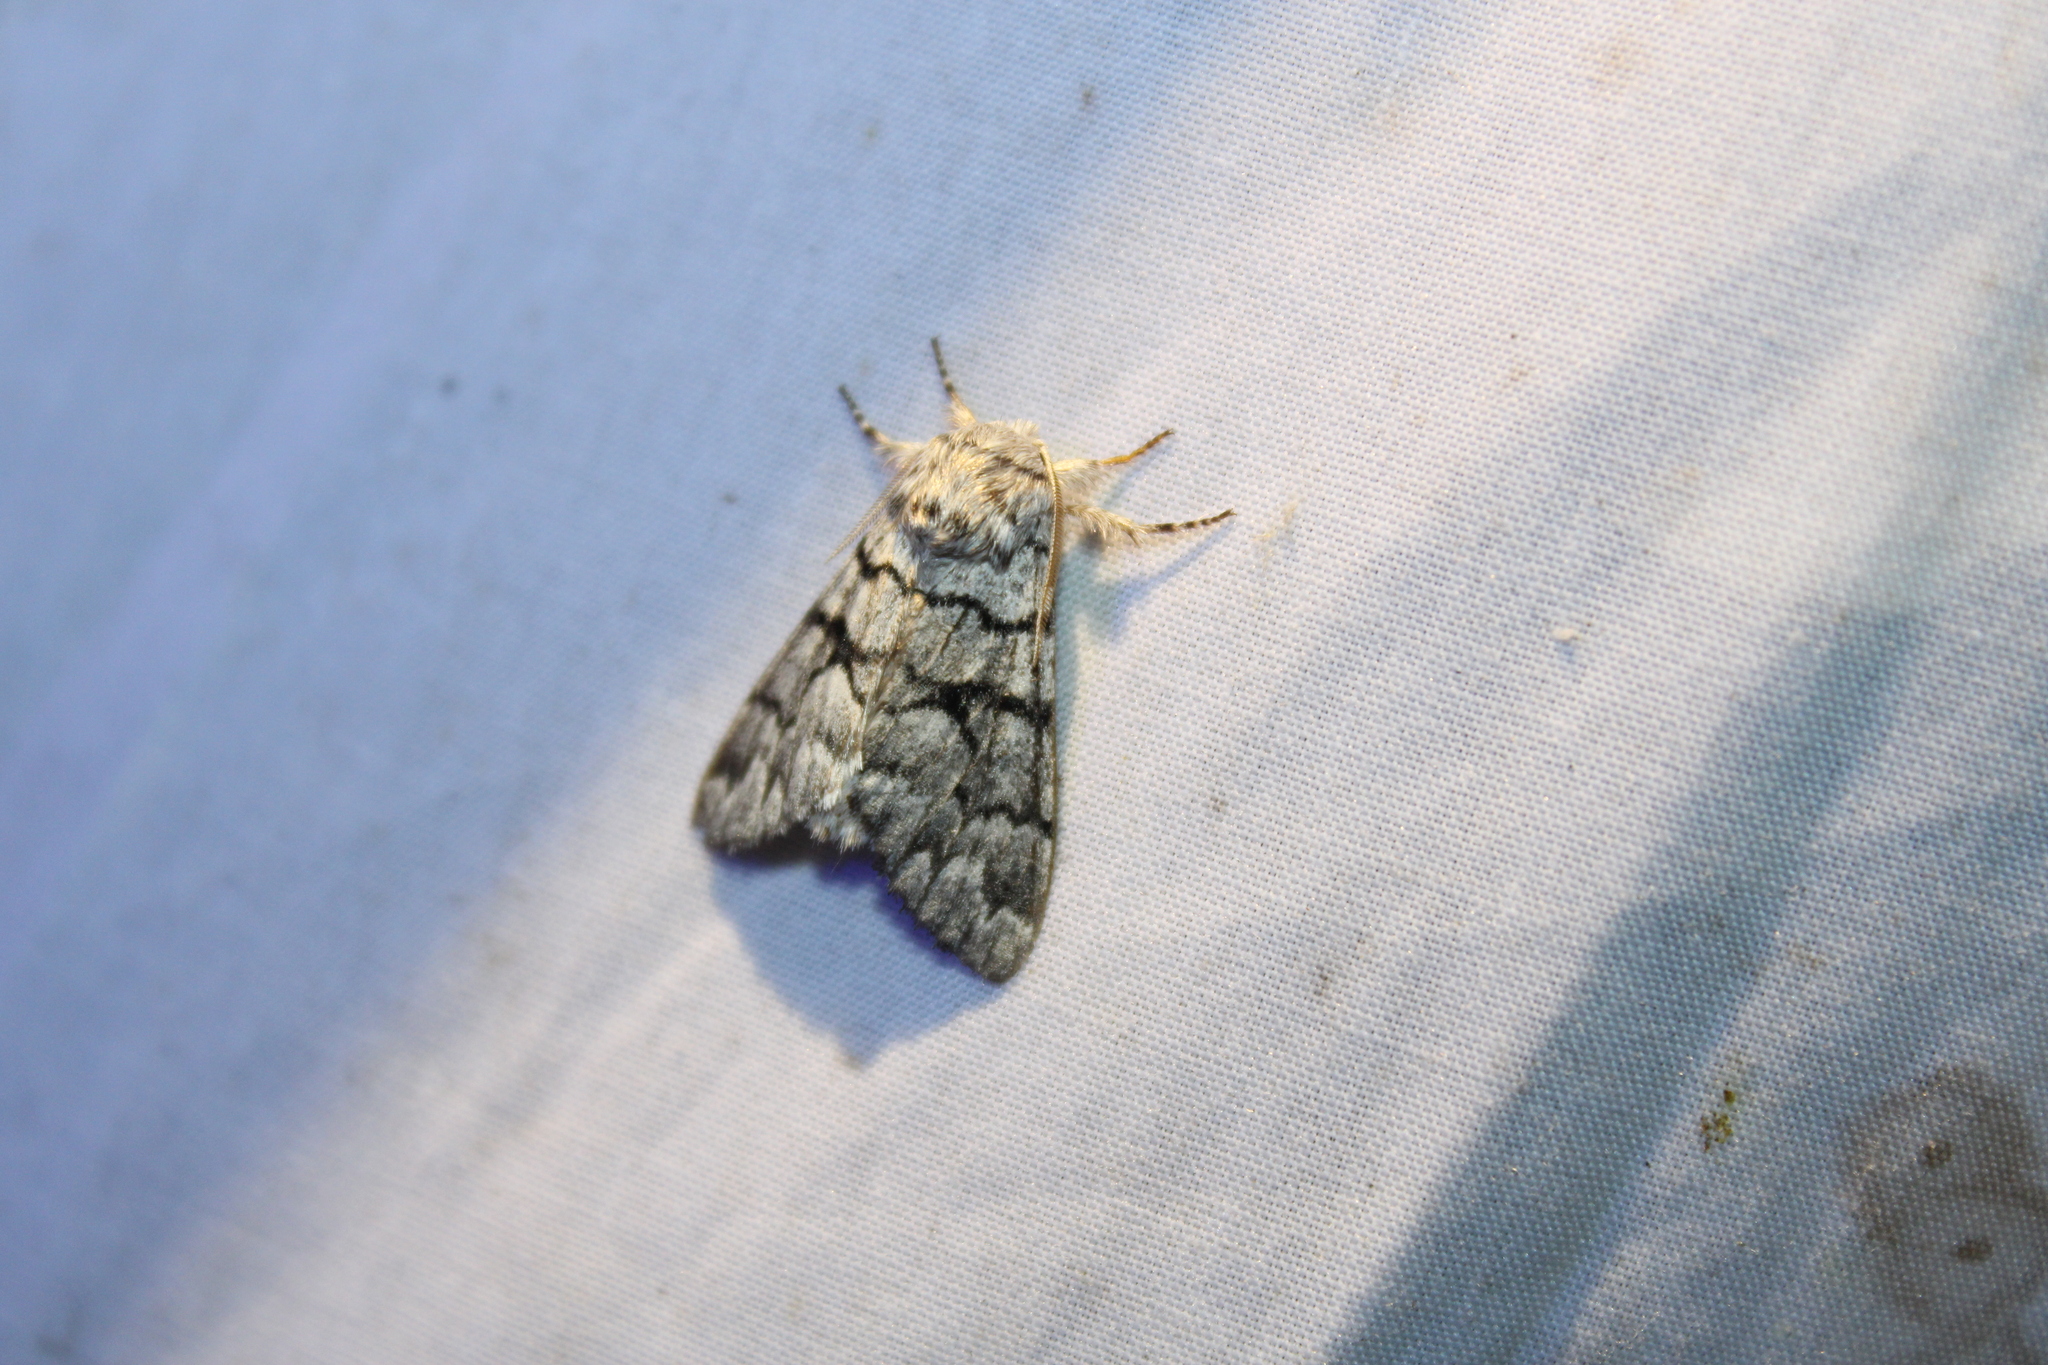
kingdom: Animalia
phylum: Arthropoda
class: Insecta
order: Lepidoptera
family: Noctuidae
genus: Panthea
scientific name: Panthea furcilla
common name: Eastern panthea moth
